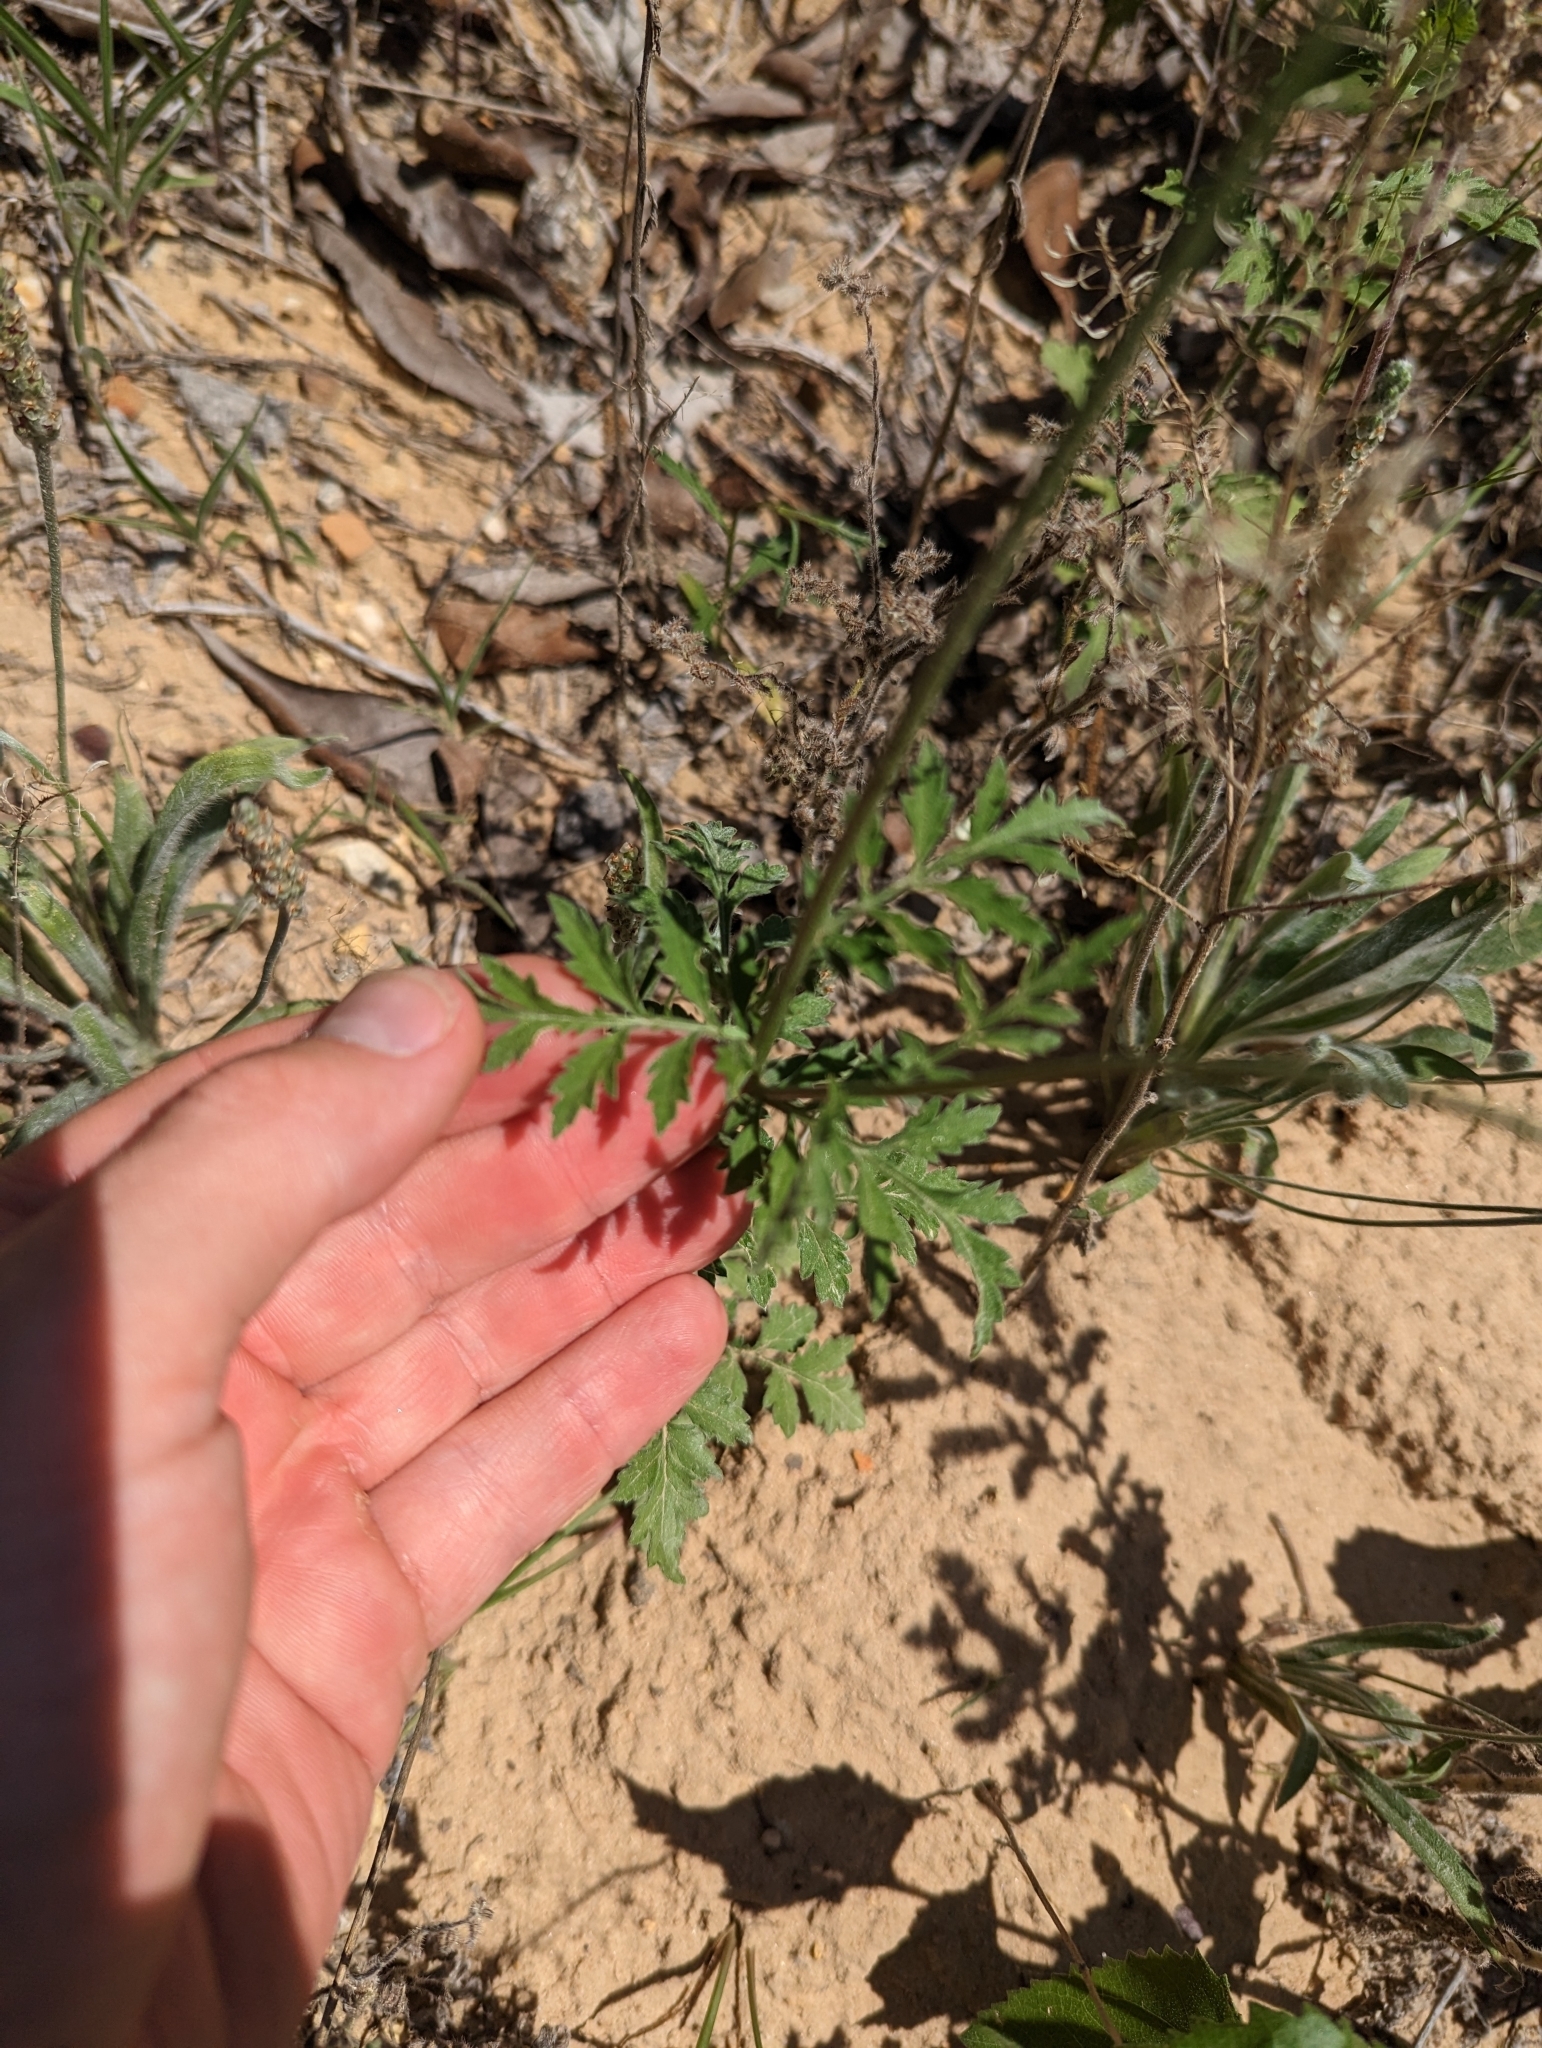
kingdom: Plantae
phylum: Tracheophyta
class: Magnoliopsida
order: Asterales
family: Asteraceae
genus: Ratibida
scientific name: Ratibida peduncularis
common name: Naked prairie-coneflower
